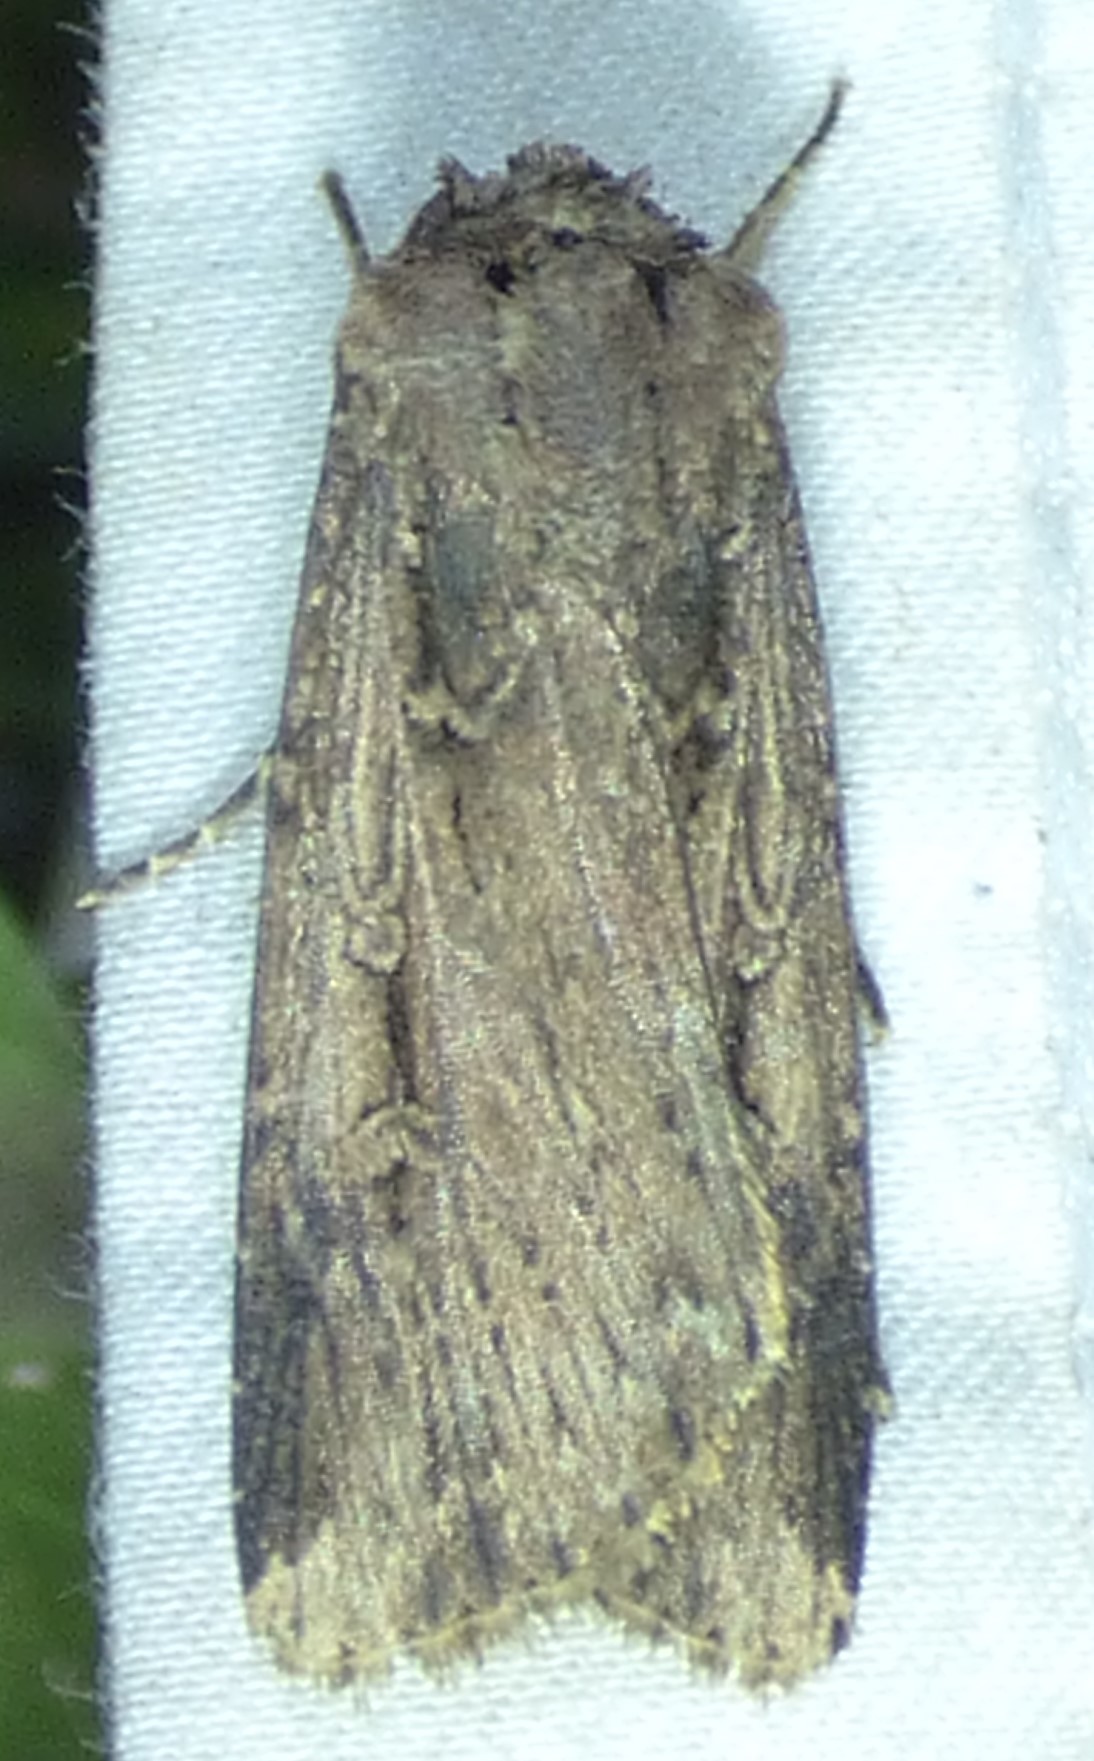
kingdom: Animalia
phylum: Arthropoda
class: Insecta
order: Lepidoptera
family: Noctuidae
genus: Feltia
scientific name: Feltia subterranea
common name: Granulate cutworm
